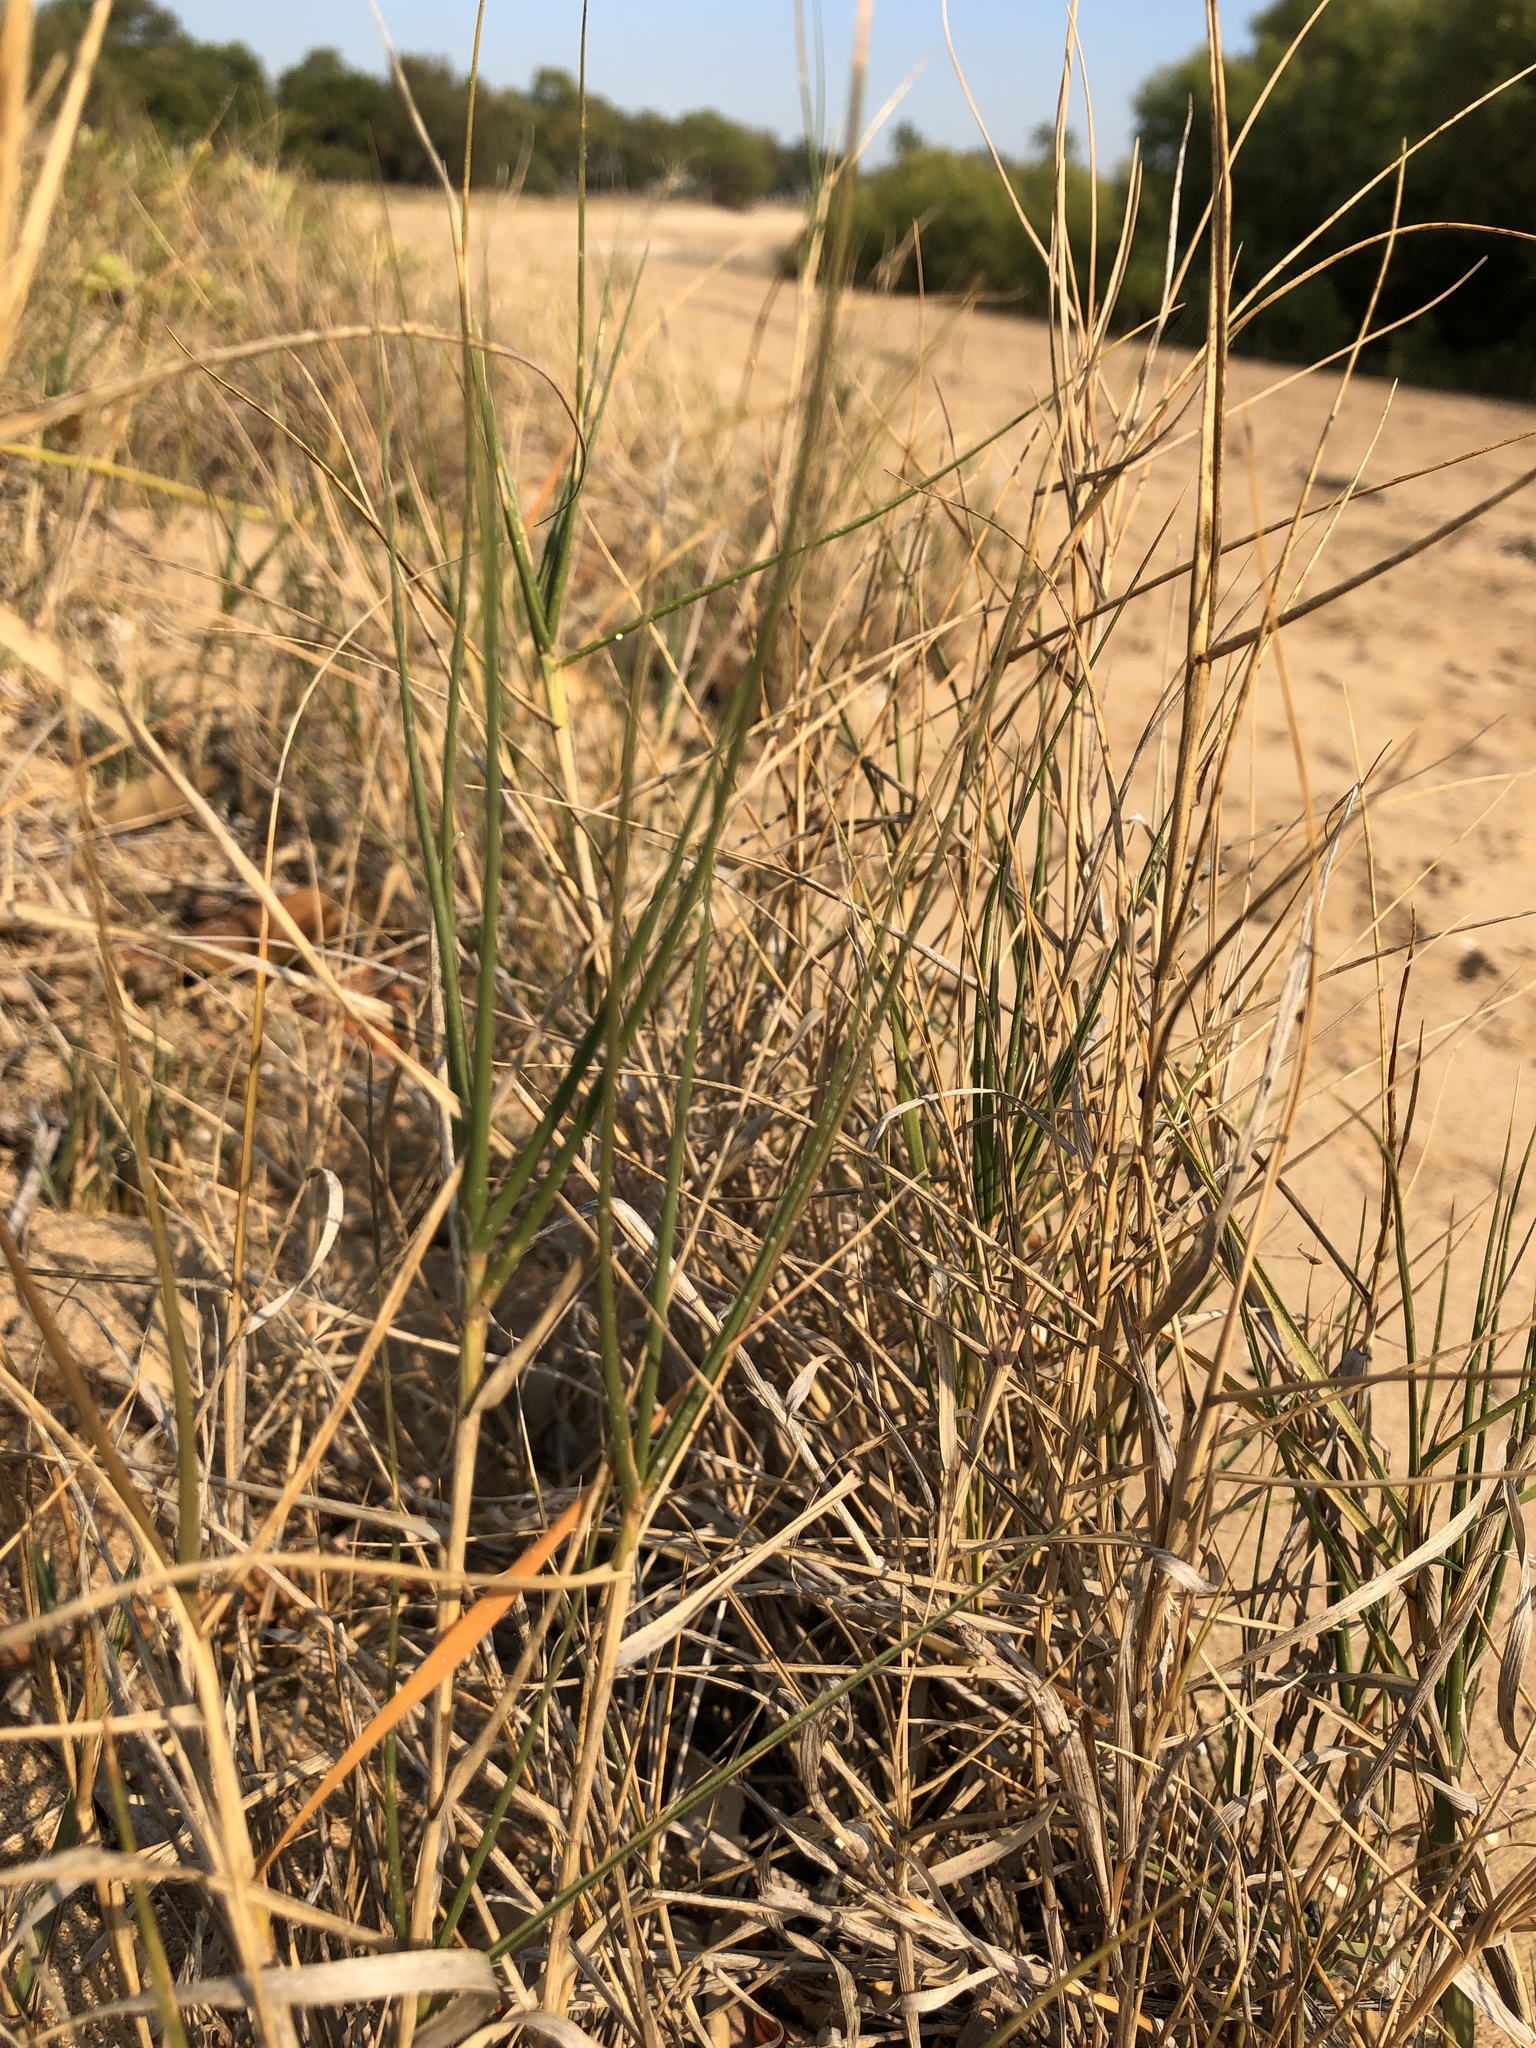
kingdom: Plantae
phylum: Tracheophyta
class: Liliopsida
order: Poales
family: Poaceae
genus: Sporobolus
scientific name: Sporobolus virginicus
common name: Beach dropseed
